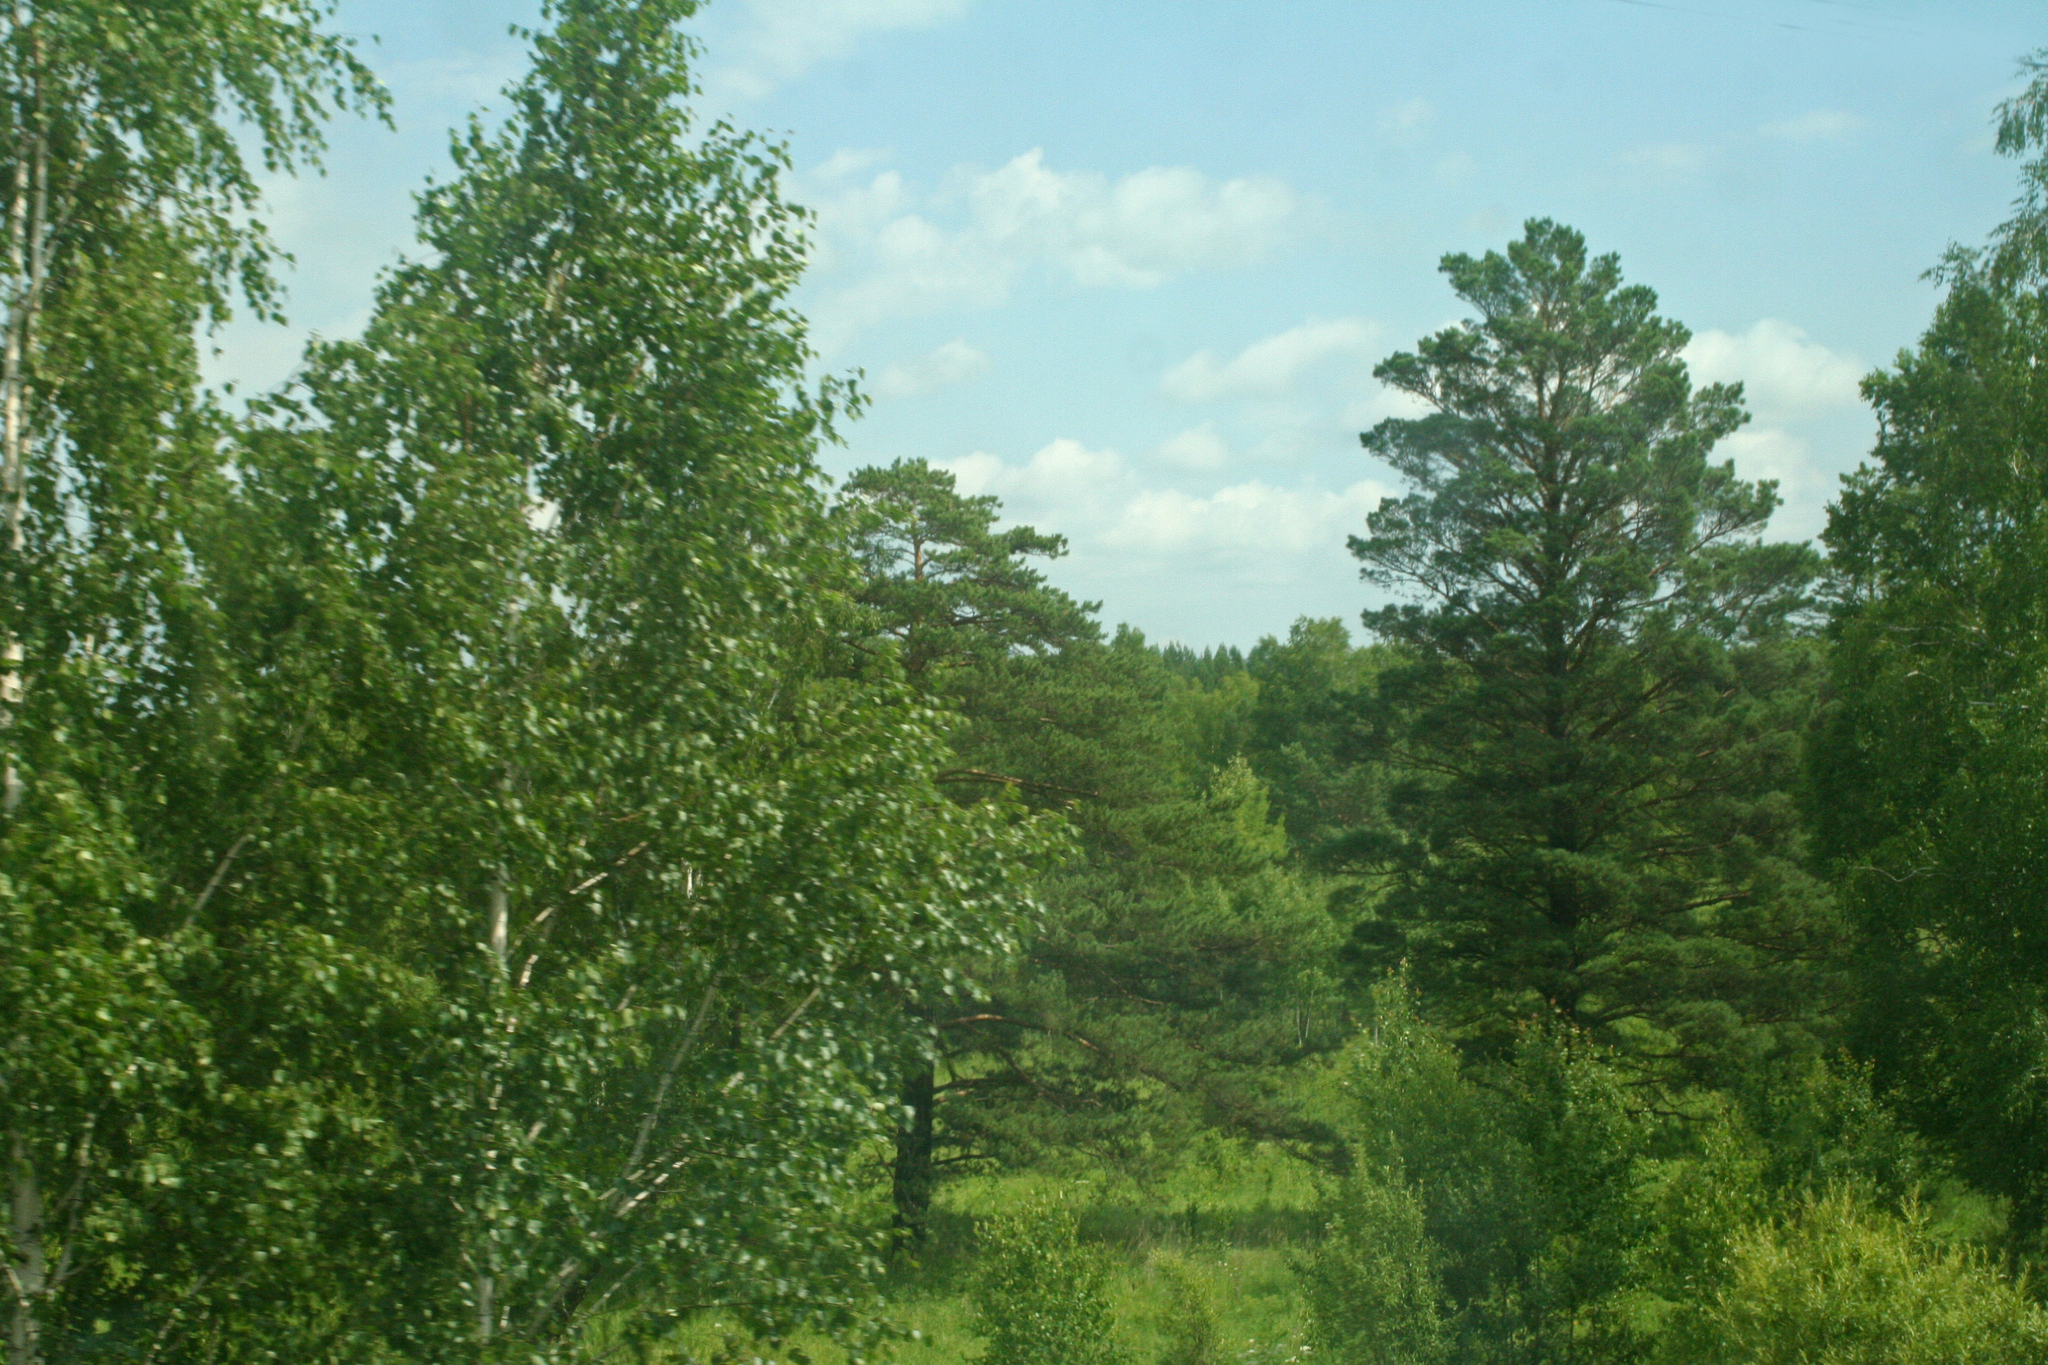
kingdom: Plantae
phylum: Tracheophyta
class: Magnoliopsida
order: Fagales
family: Betulaceae
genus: Betula
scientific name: Betula pendula
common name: Silver birch
